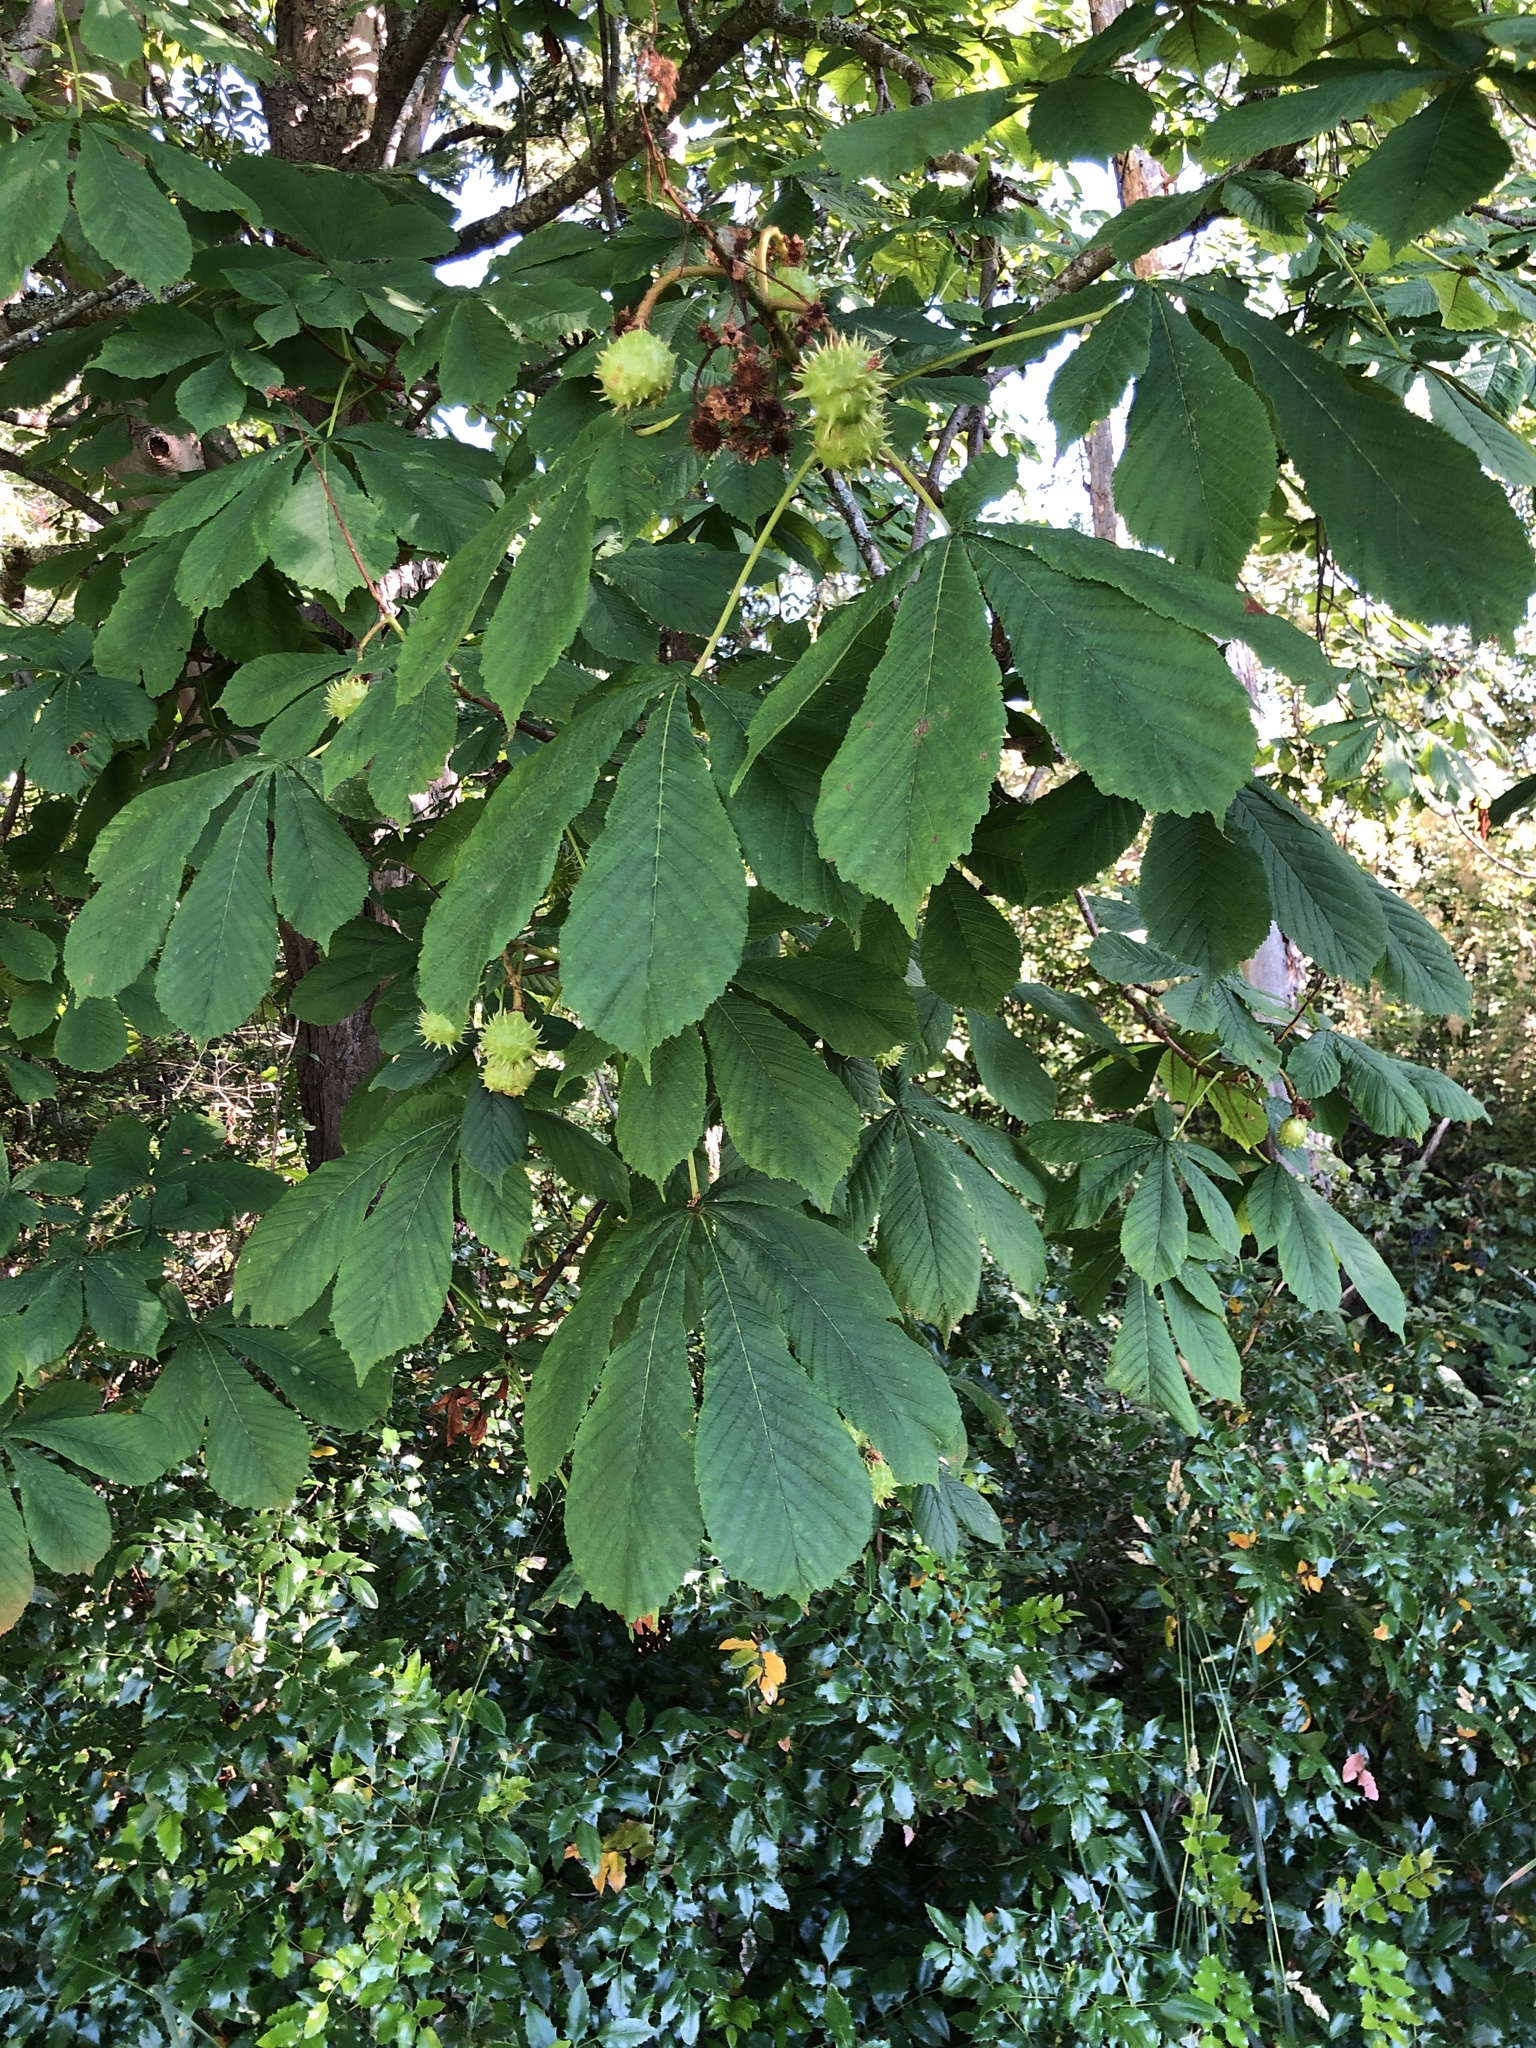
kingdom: Plantae
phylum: Tracheophyta
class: Magnoliopsida
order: Sapindales
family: Sapindaceae
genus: Aesculus
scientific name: Aesculus hippocastanum
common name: Horse-chestnut
